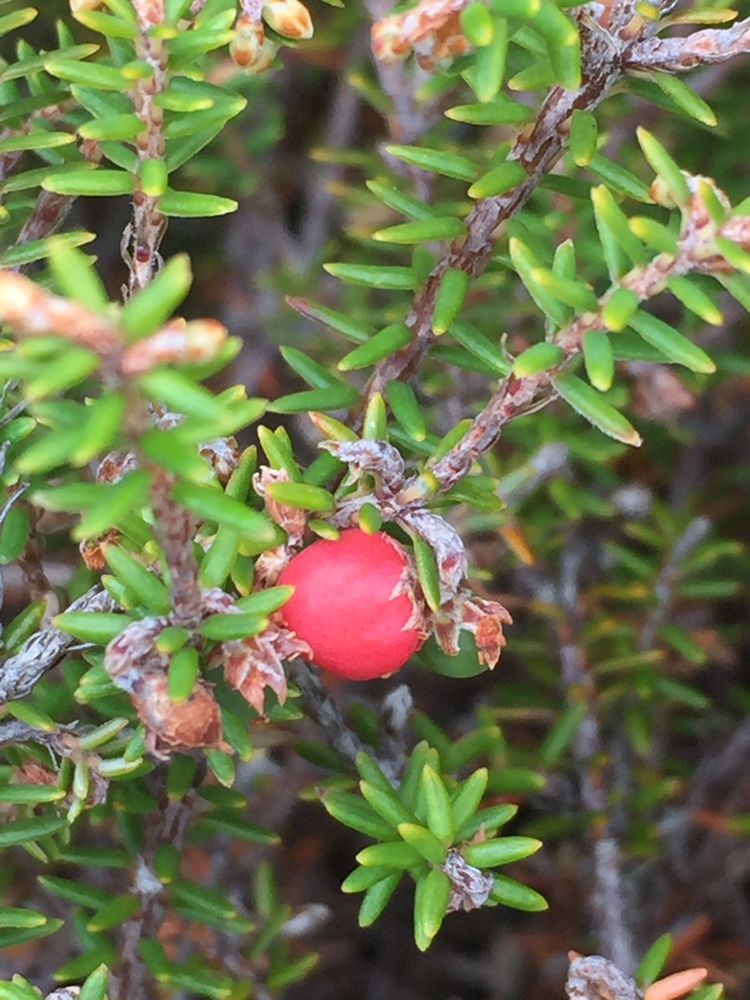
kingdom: Plantae
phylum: Tracheophyta
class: Magnoliopsida
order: Ericales
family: Ericaceae
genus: Androstoma
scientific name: Androstoma empetrifolia
